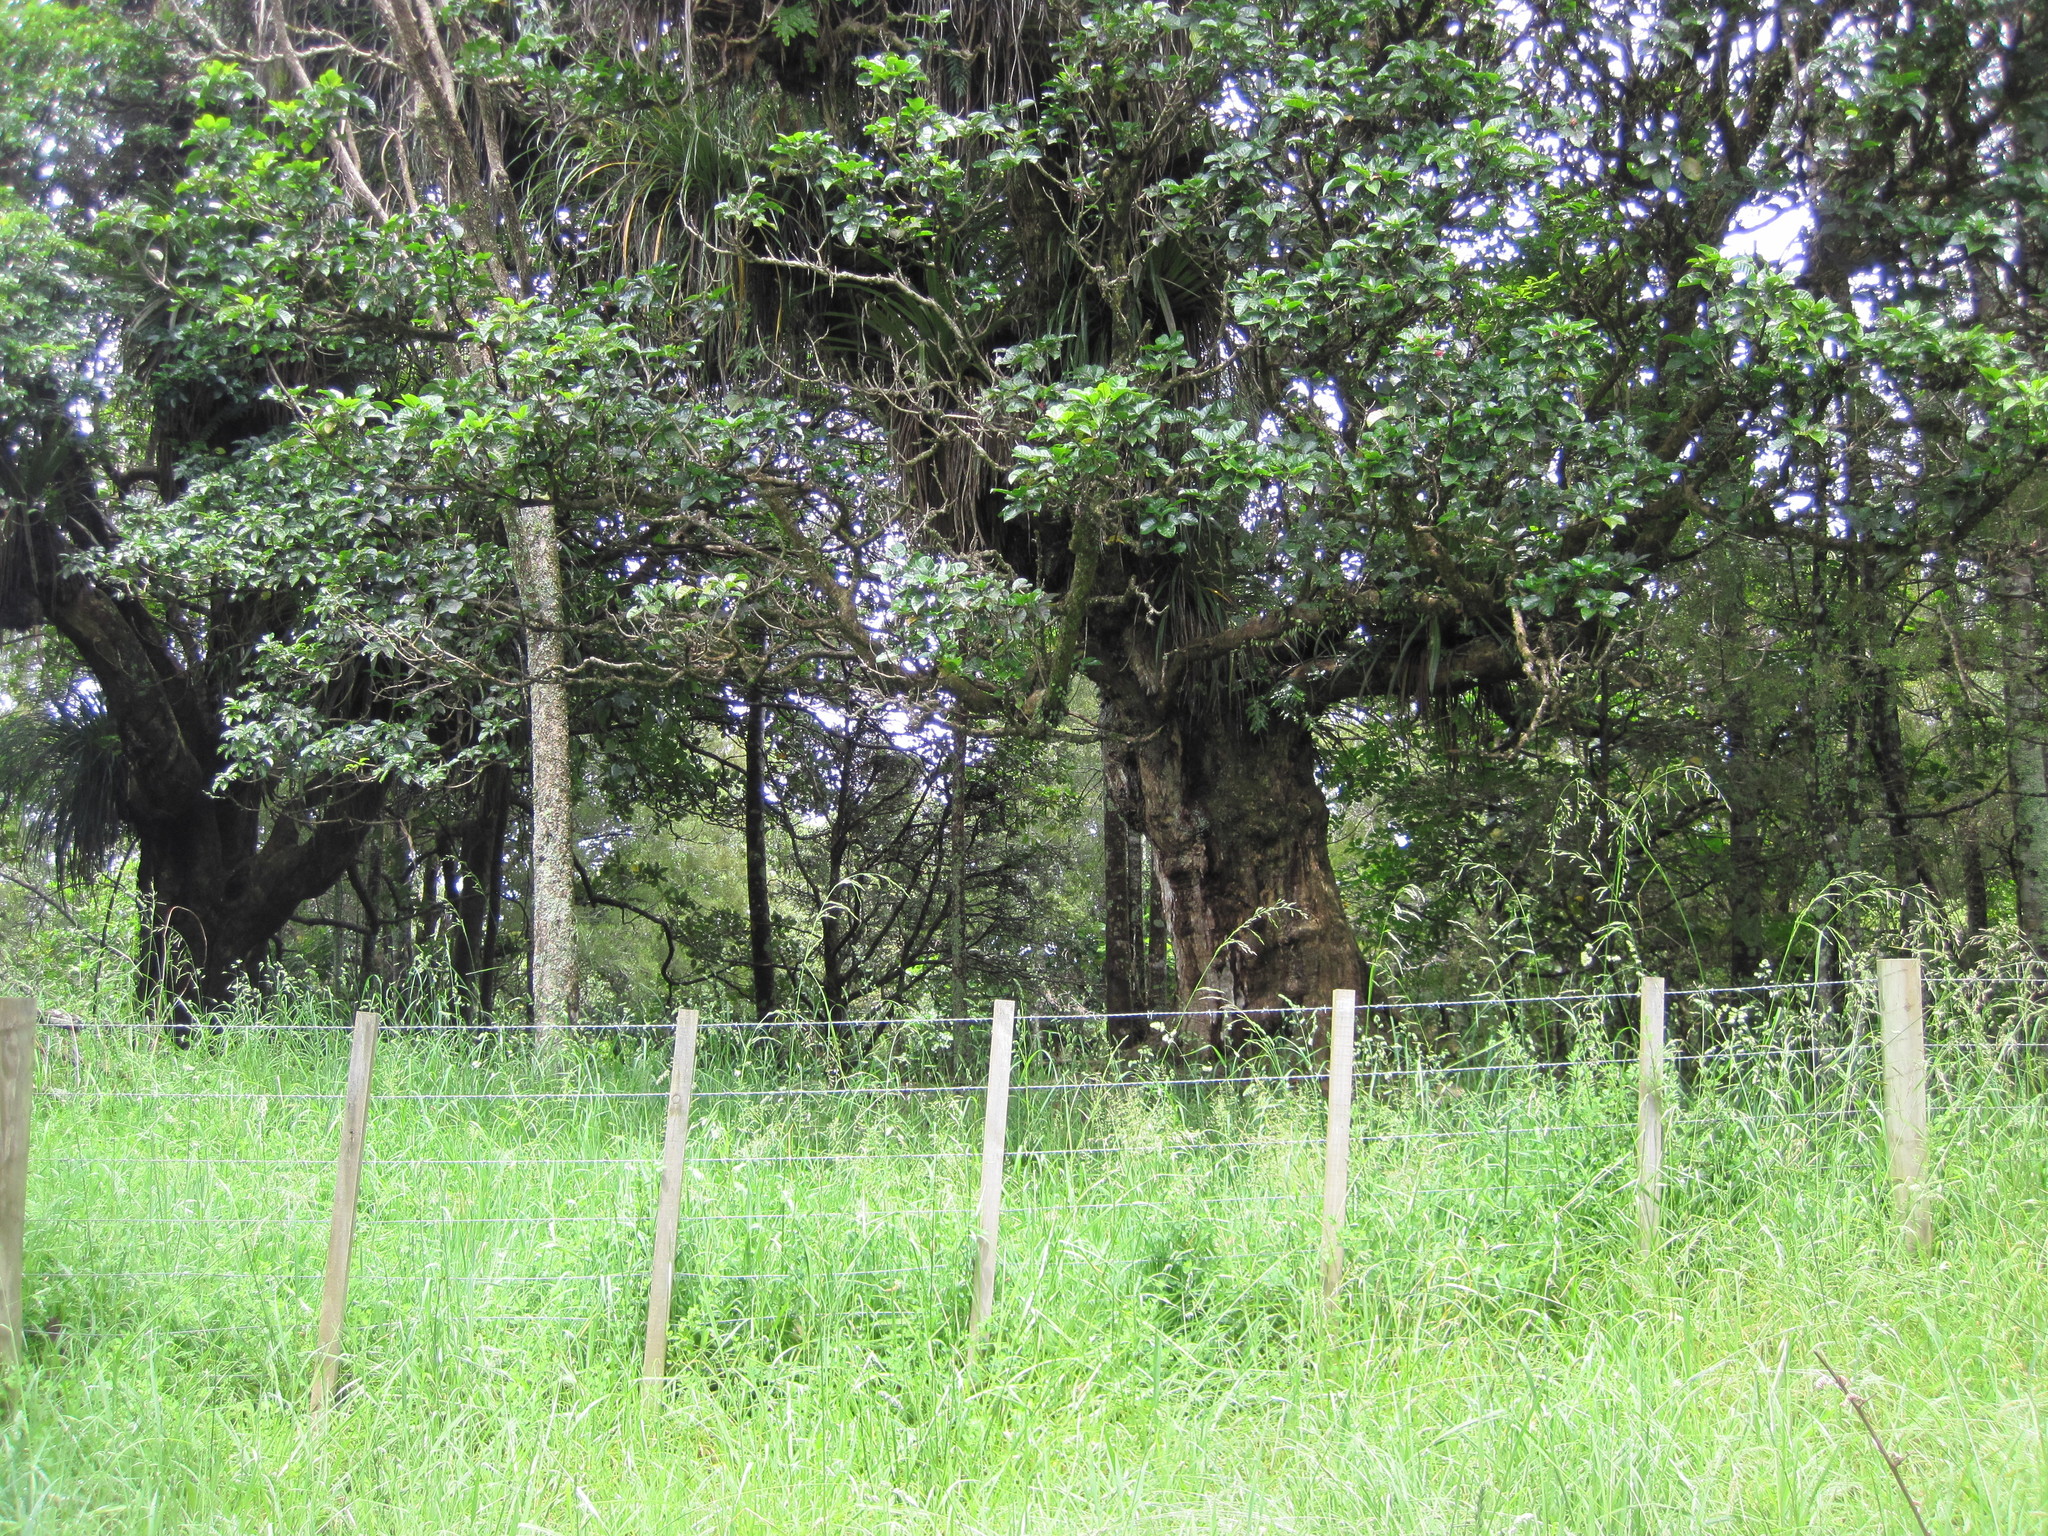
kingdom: Plantae
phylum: Tracheophyta
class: Magnoliopsida
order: Lamiales
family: Lamiaceae
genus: Vitex
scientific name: Vitex lucens
